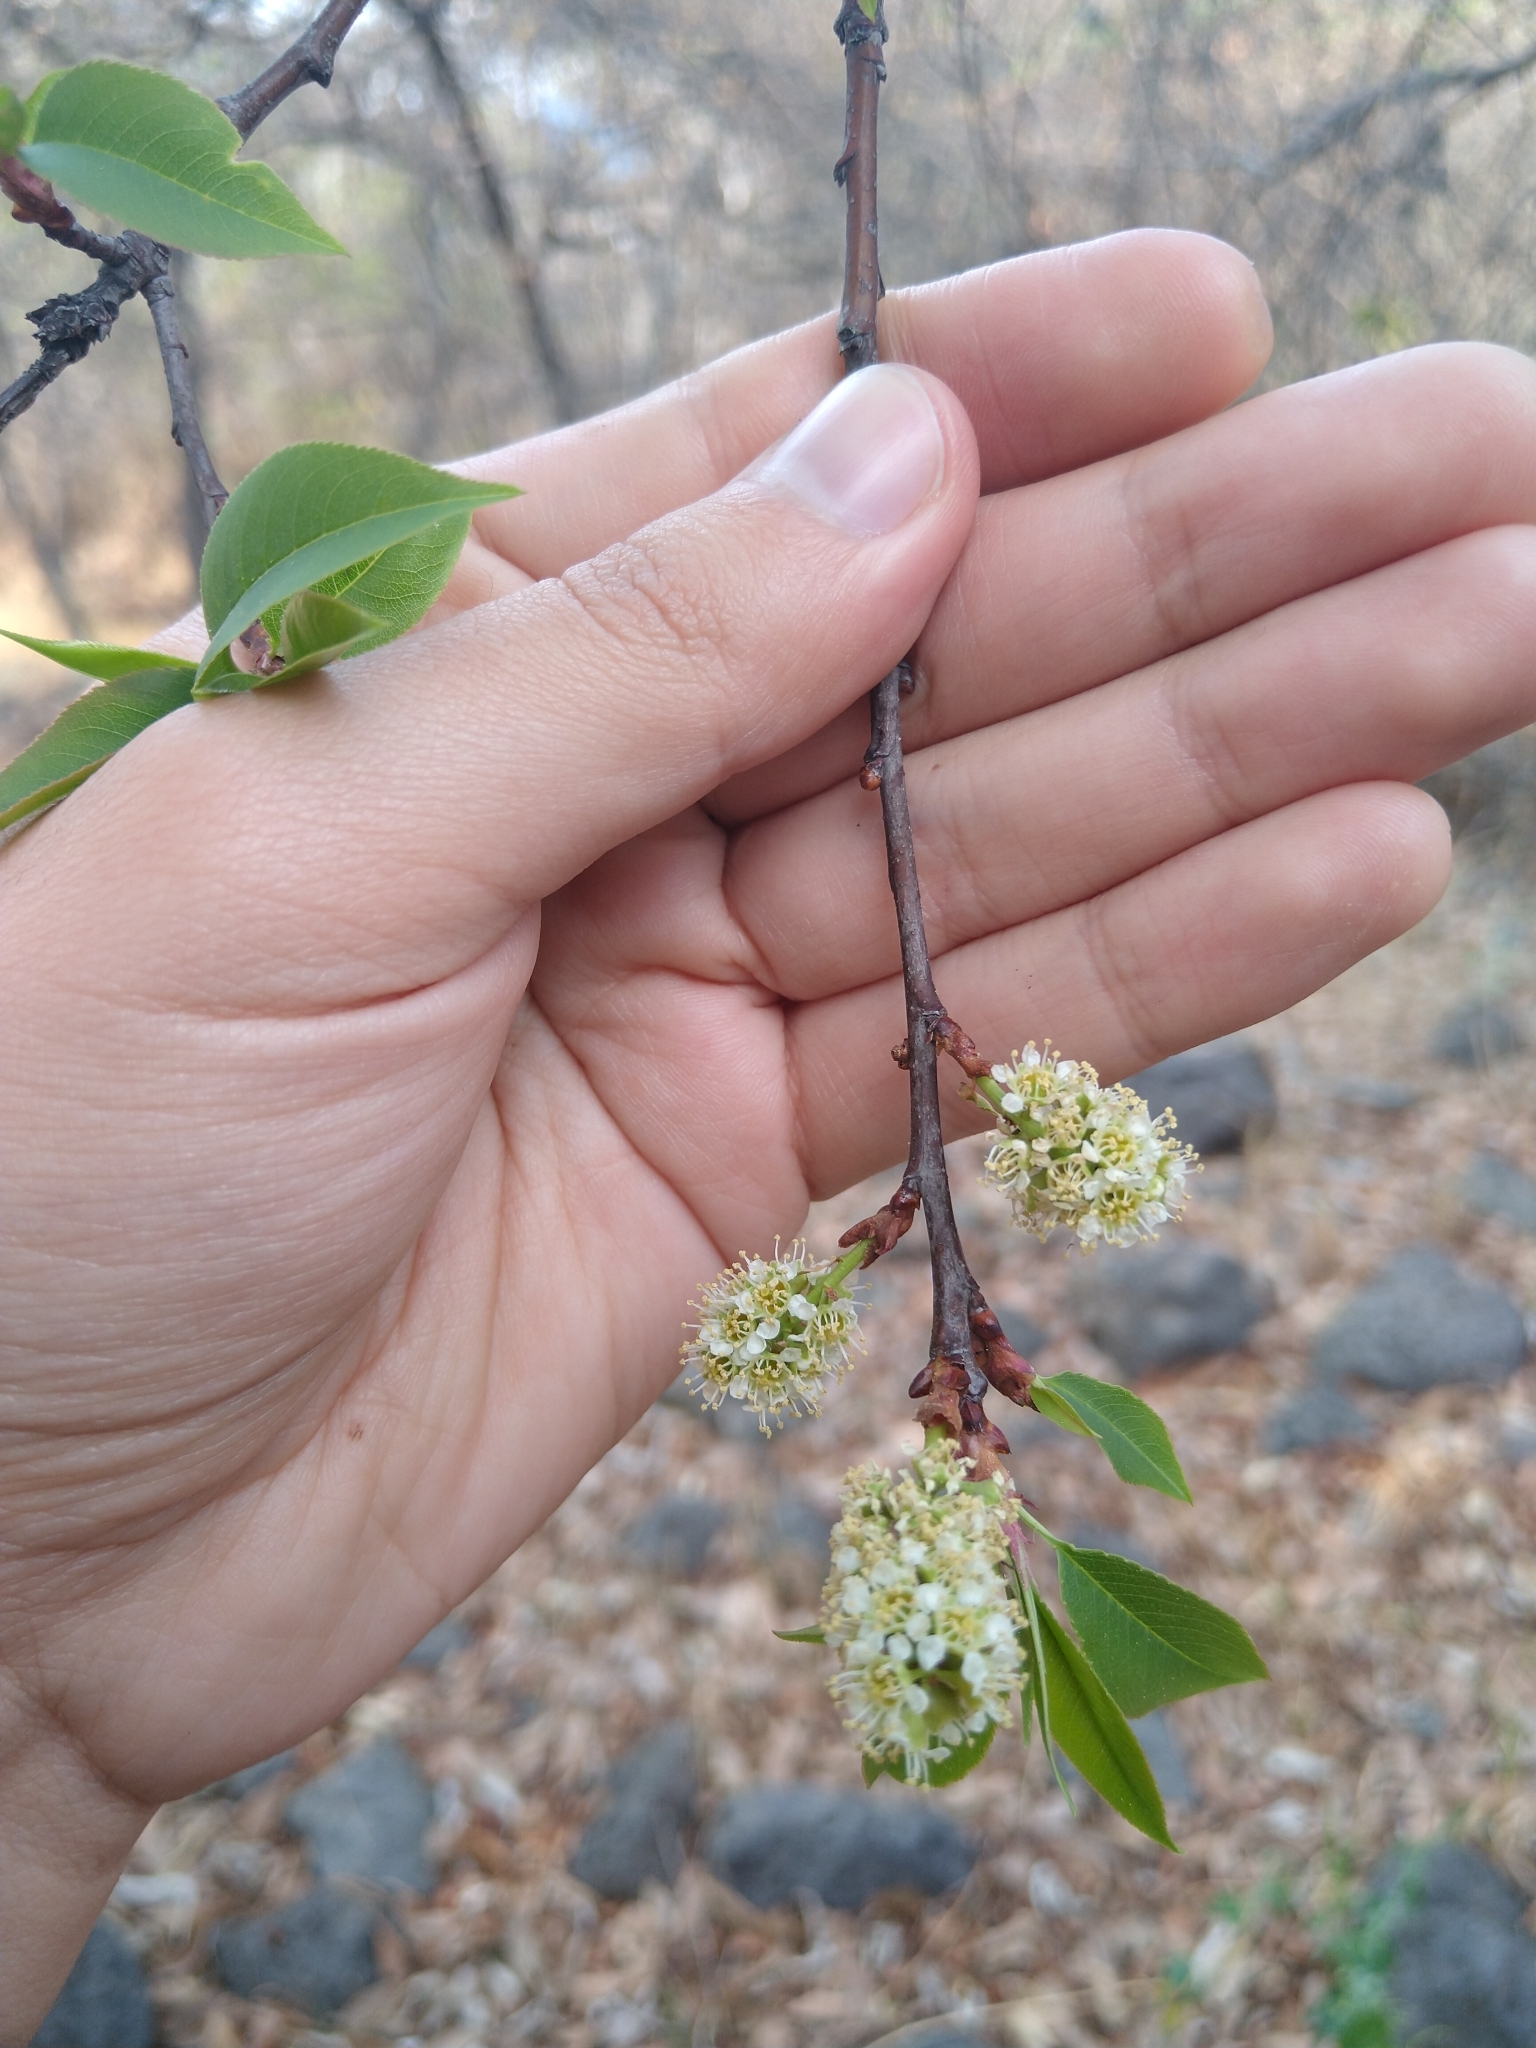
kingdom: Plantae
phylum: Tracheophyta
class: Magnoliopsida
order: Rosales
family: Rosaceae
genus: Prunus
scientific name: Prunus serotina
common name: Black cherry
